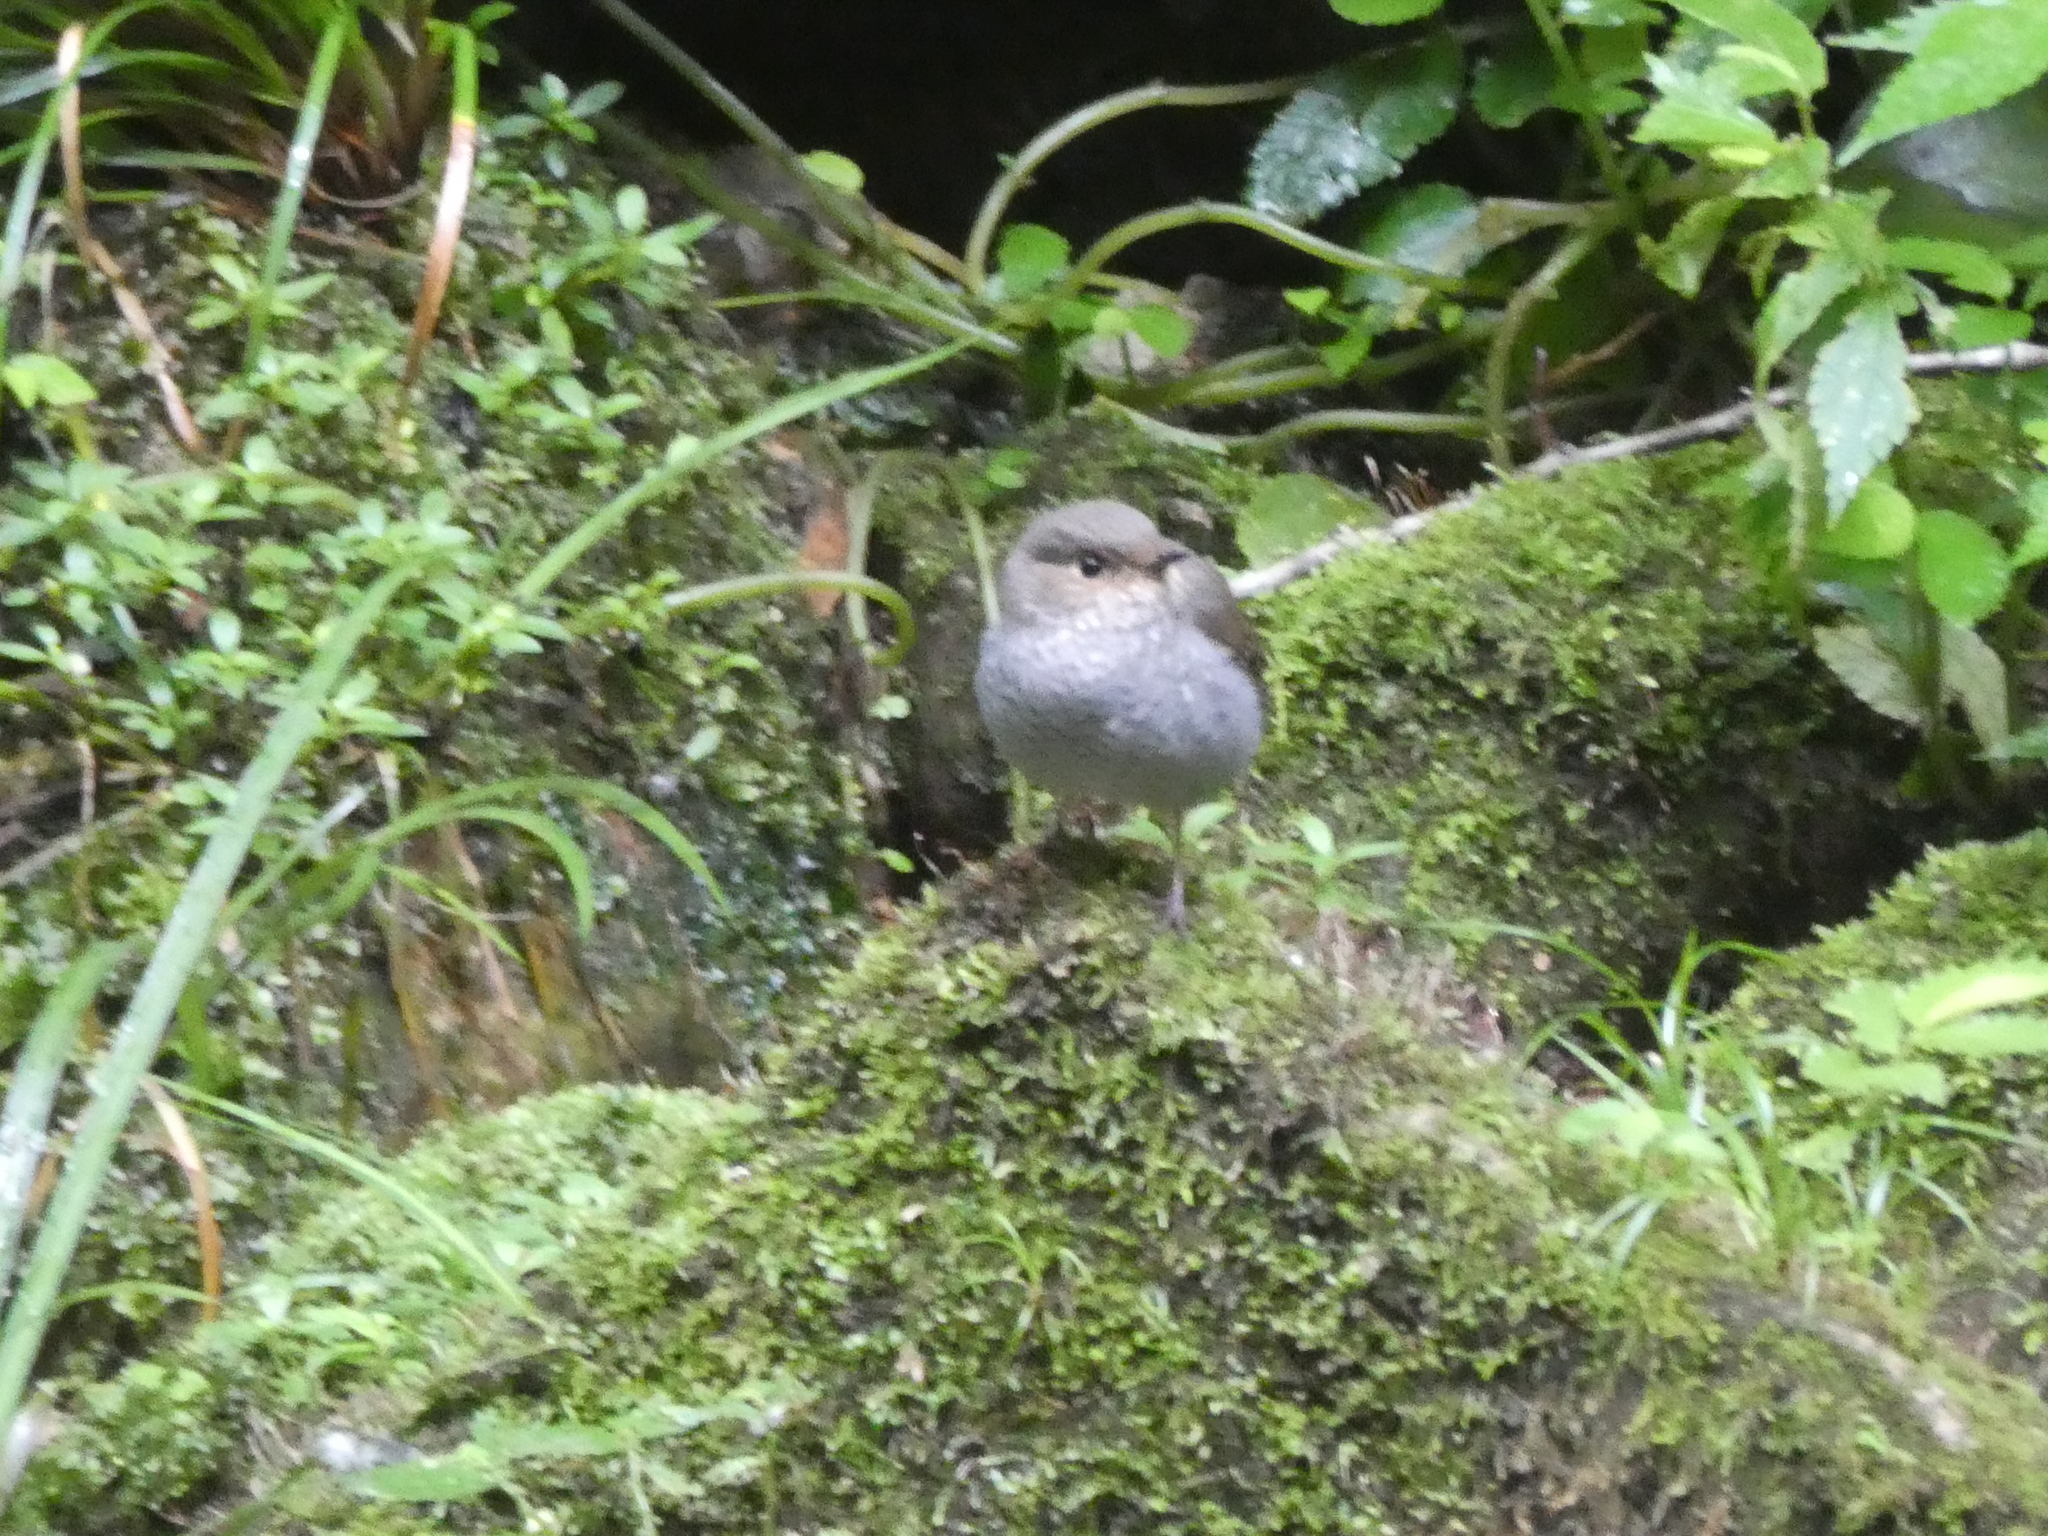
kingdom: Animalia
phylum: Chordata
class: Aves
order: Passeriformes
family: Muscicapidae
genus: Phoenicurus
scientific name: Phoenicurus fuliginosus
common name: Plumbeous water redstart
